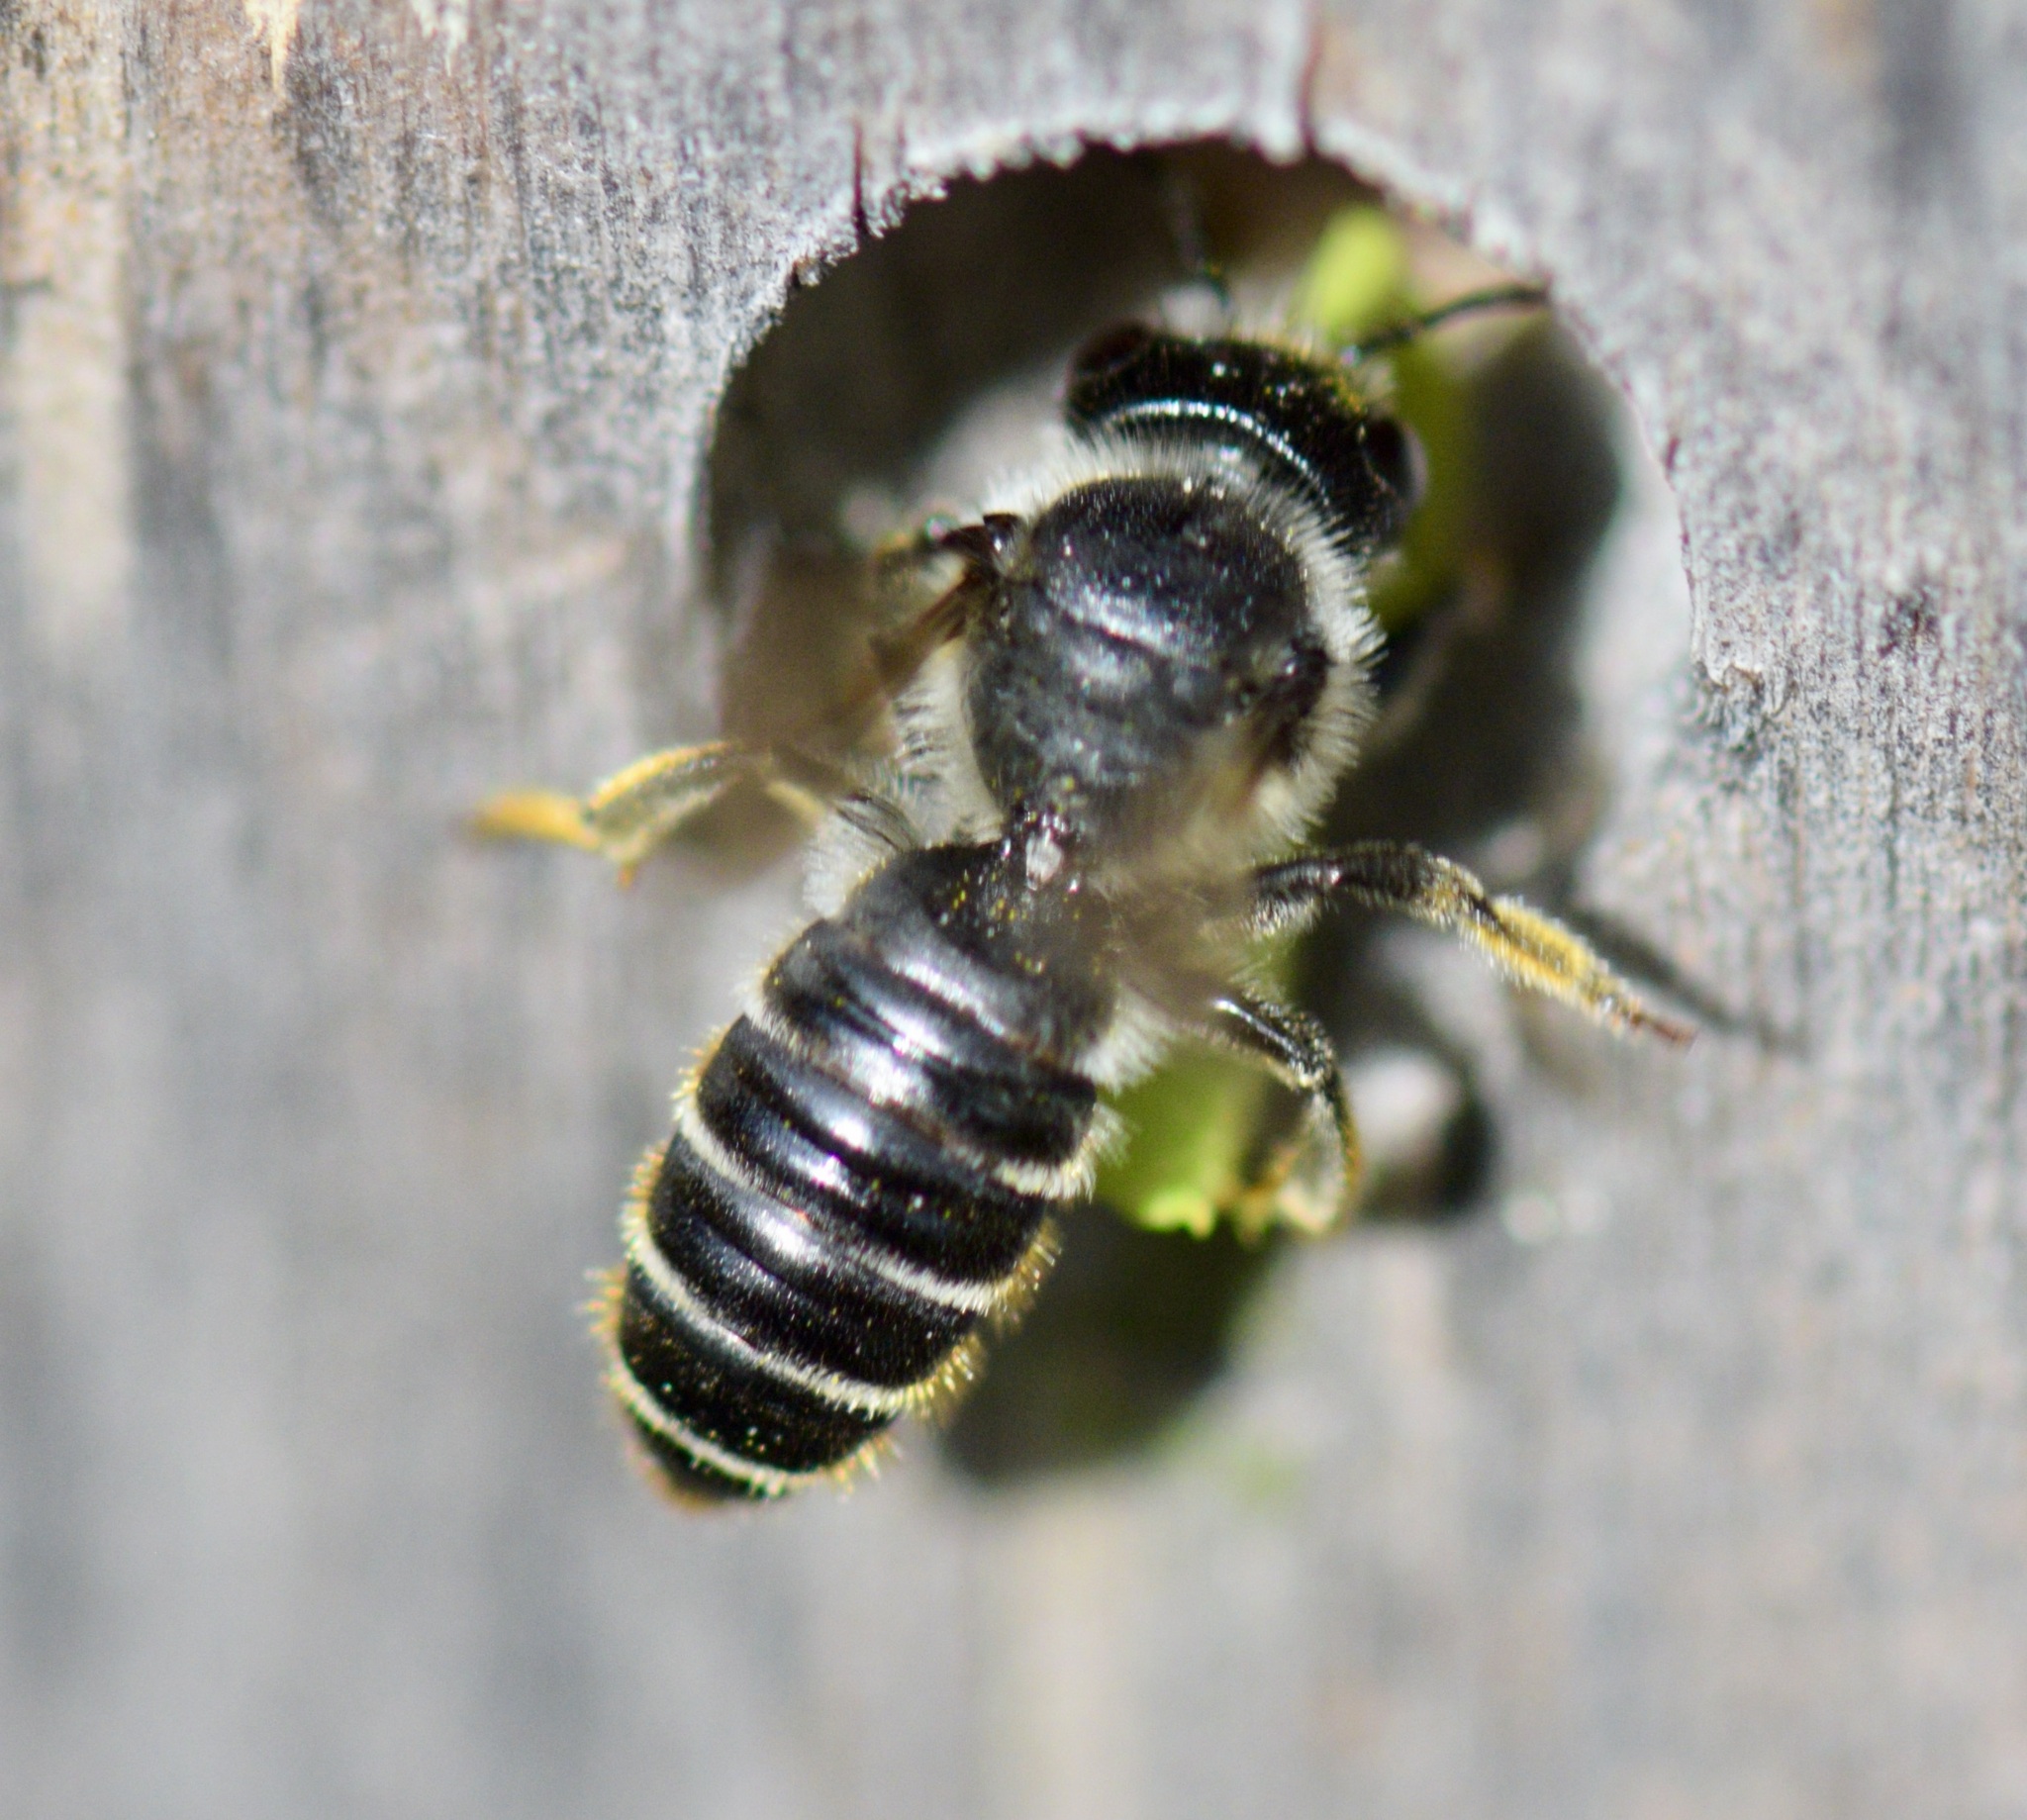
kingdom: Animalia
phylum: Arthropoda
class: Insecta
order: Hymenoptera
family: Megachilidae
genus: Megachile
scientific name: Megachile relativa
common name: Golden-tailed leafcutter
